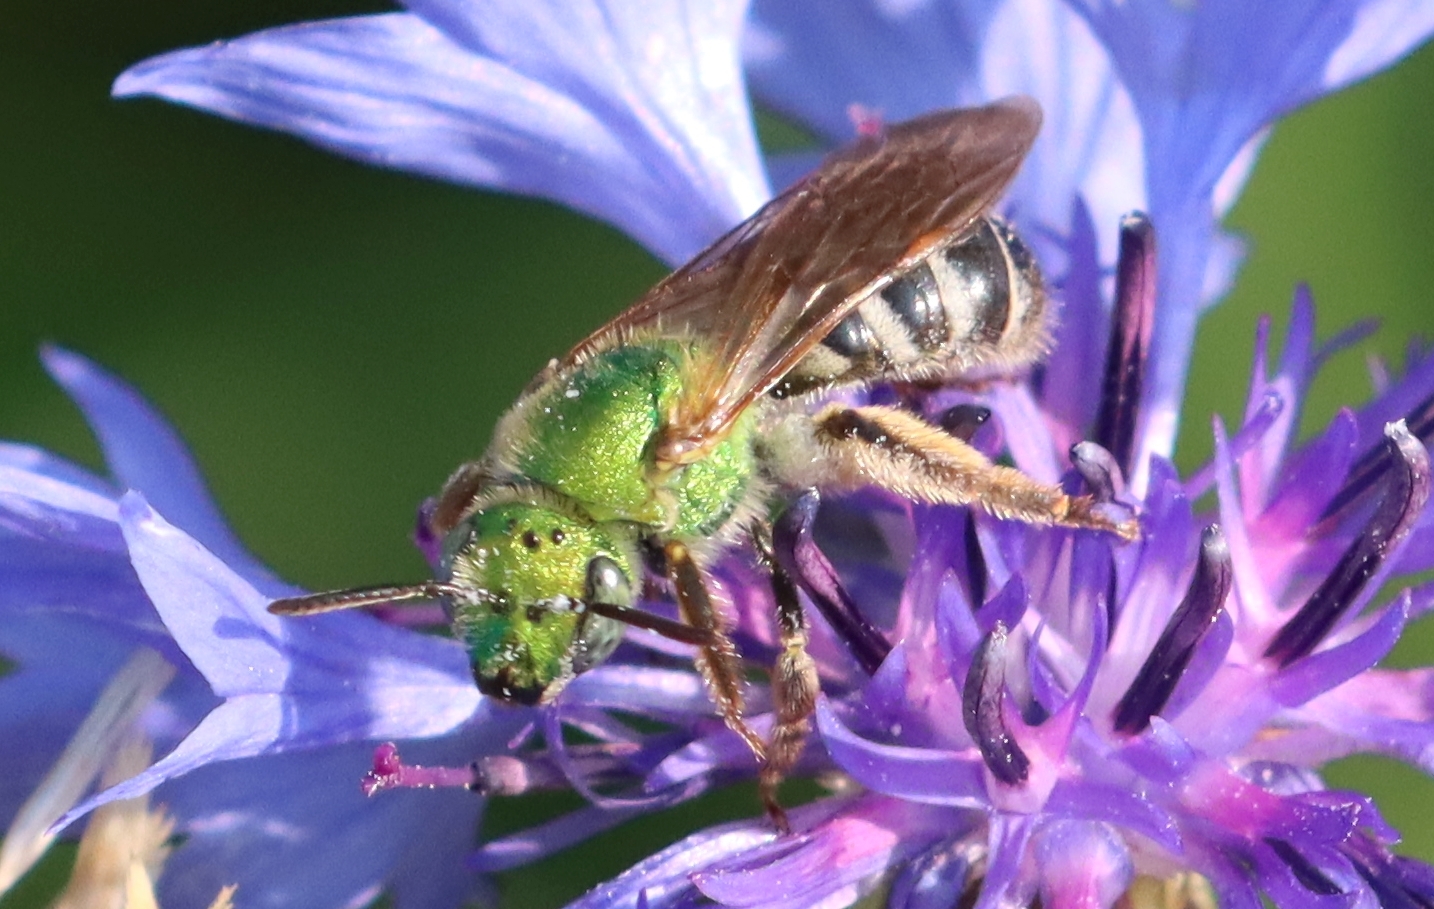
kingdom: Animalia
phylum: Arthropoda
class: Insecta
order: Hymenoptera
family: Halictidae
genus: Agapostemon
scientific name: Agapostemon virescens
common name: Bicolored striped sweat bee
